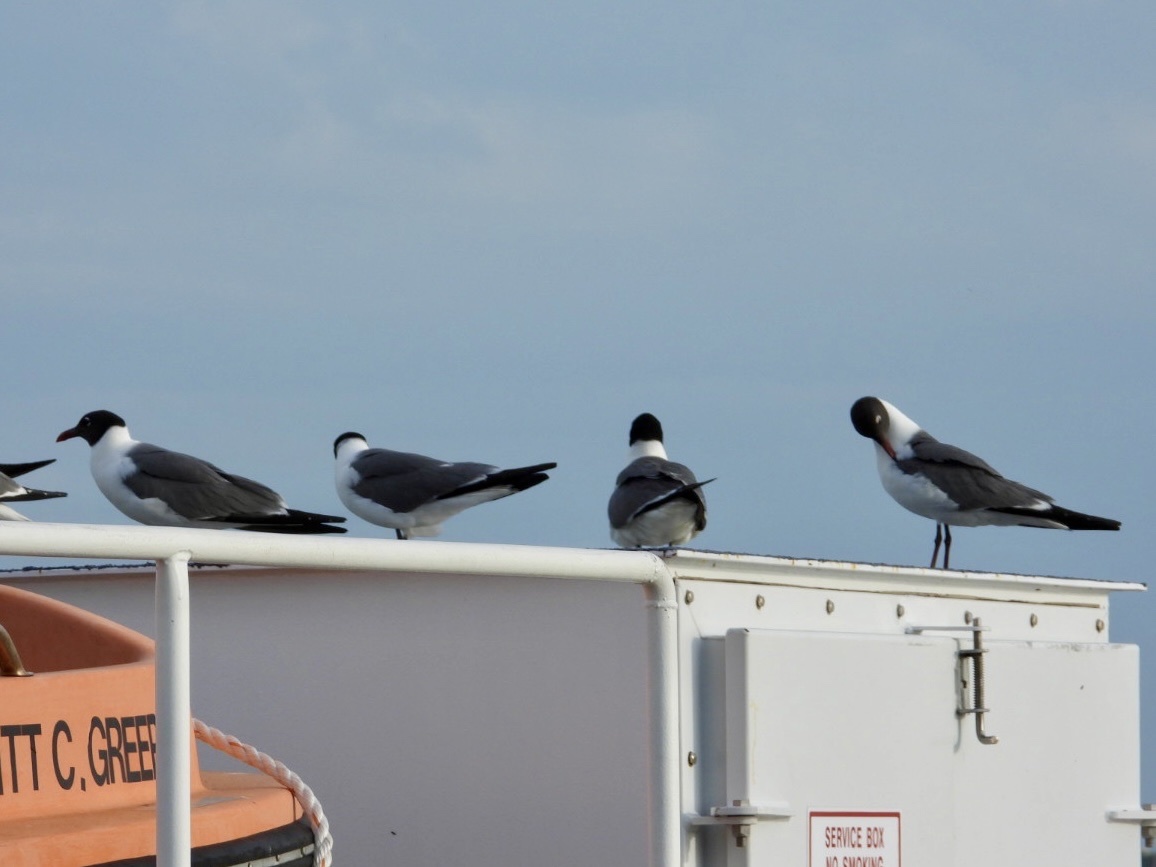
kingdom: Animalia
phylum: Chordata
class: Aves
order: Charadriiformes
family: Laridae
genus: Leucophaeus
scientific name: Leucophaeus atricilla
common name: Laughing gull
